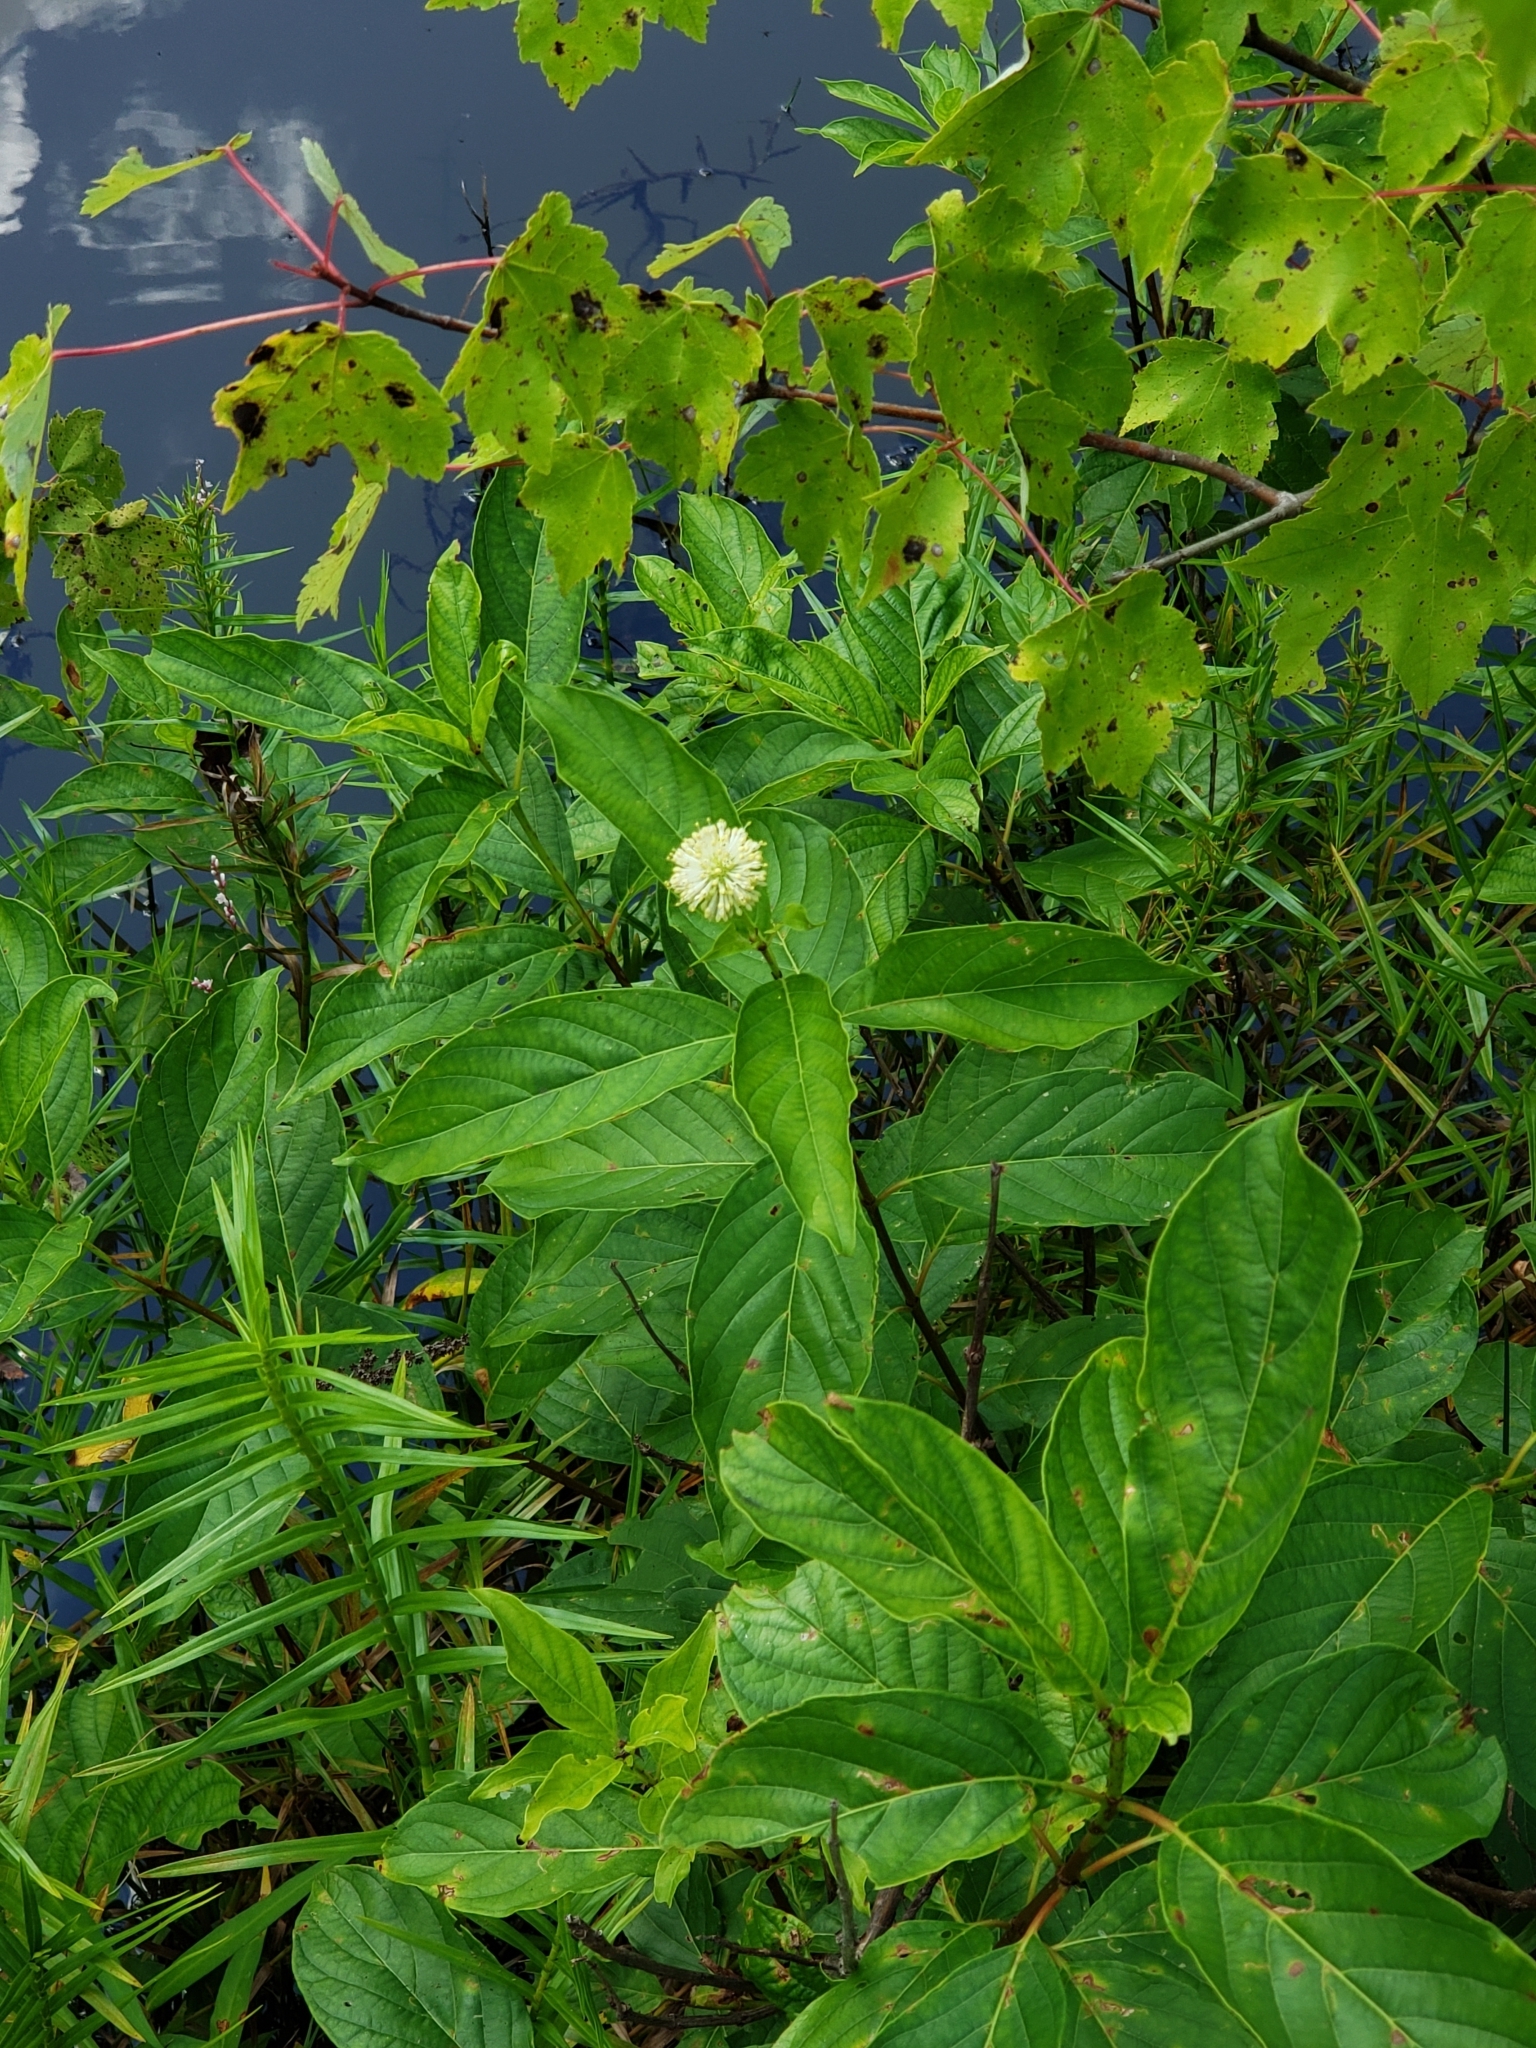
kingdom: Plantae
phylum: Tracheophyta
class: Magnoliopsida
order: Gentianales
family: Rubiaceae
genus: Cephalanthus
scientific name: Cephalanthus occidentalis
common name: Button-willow
